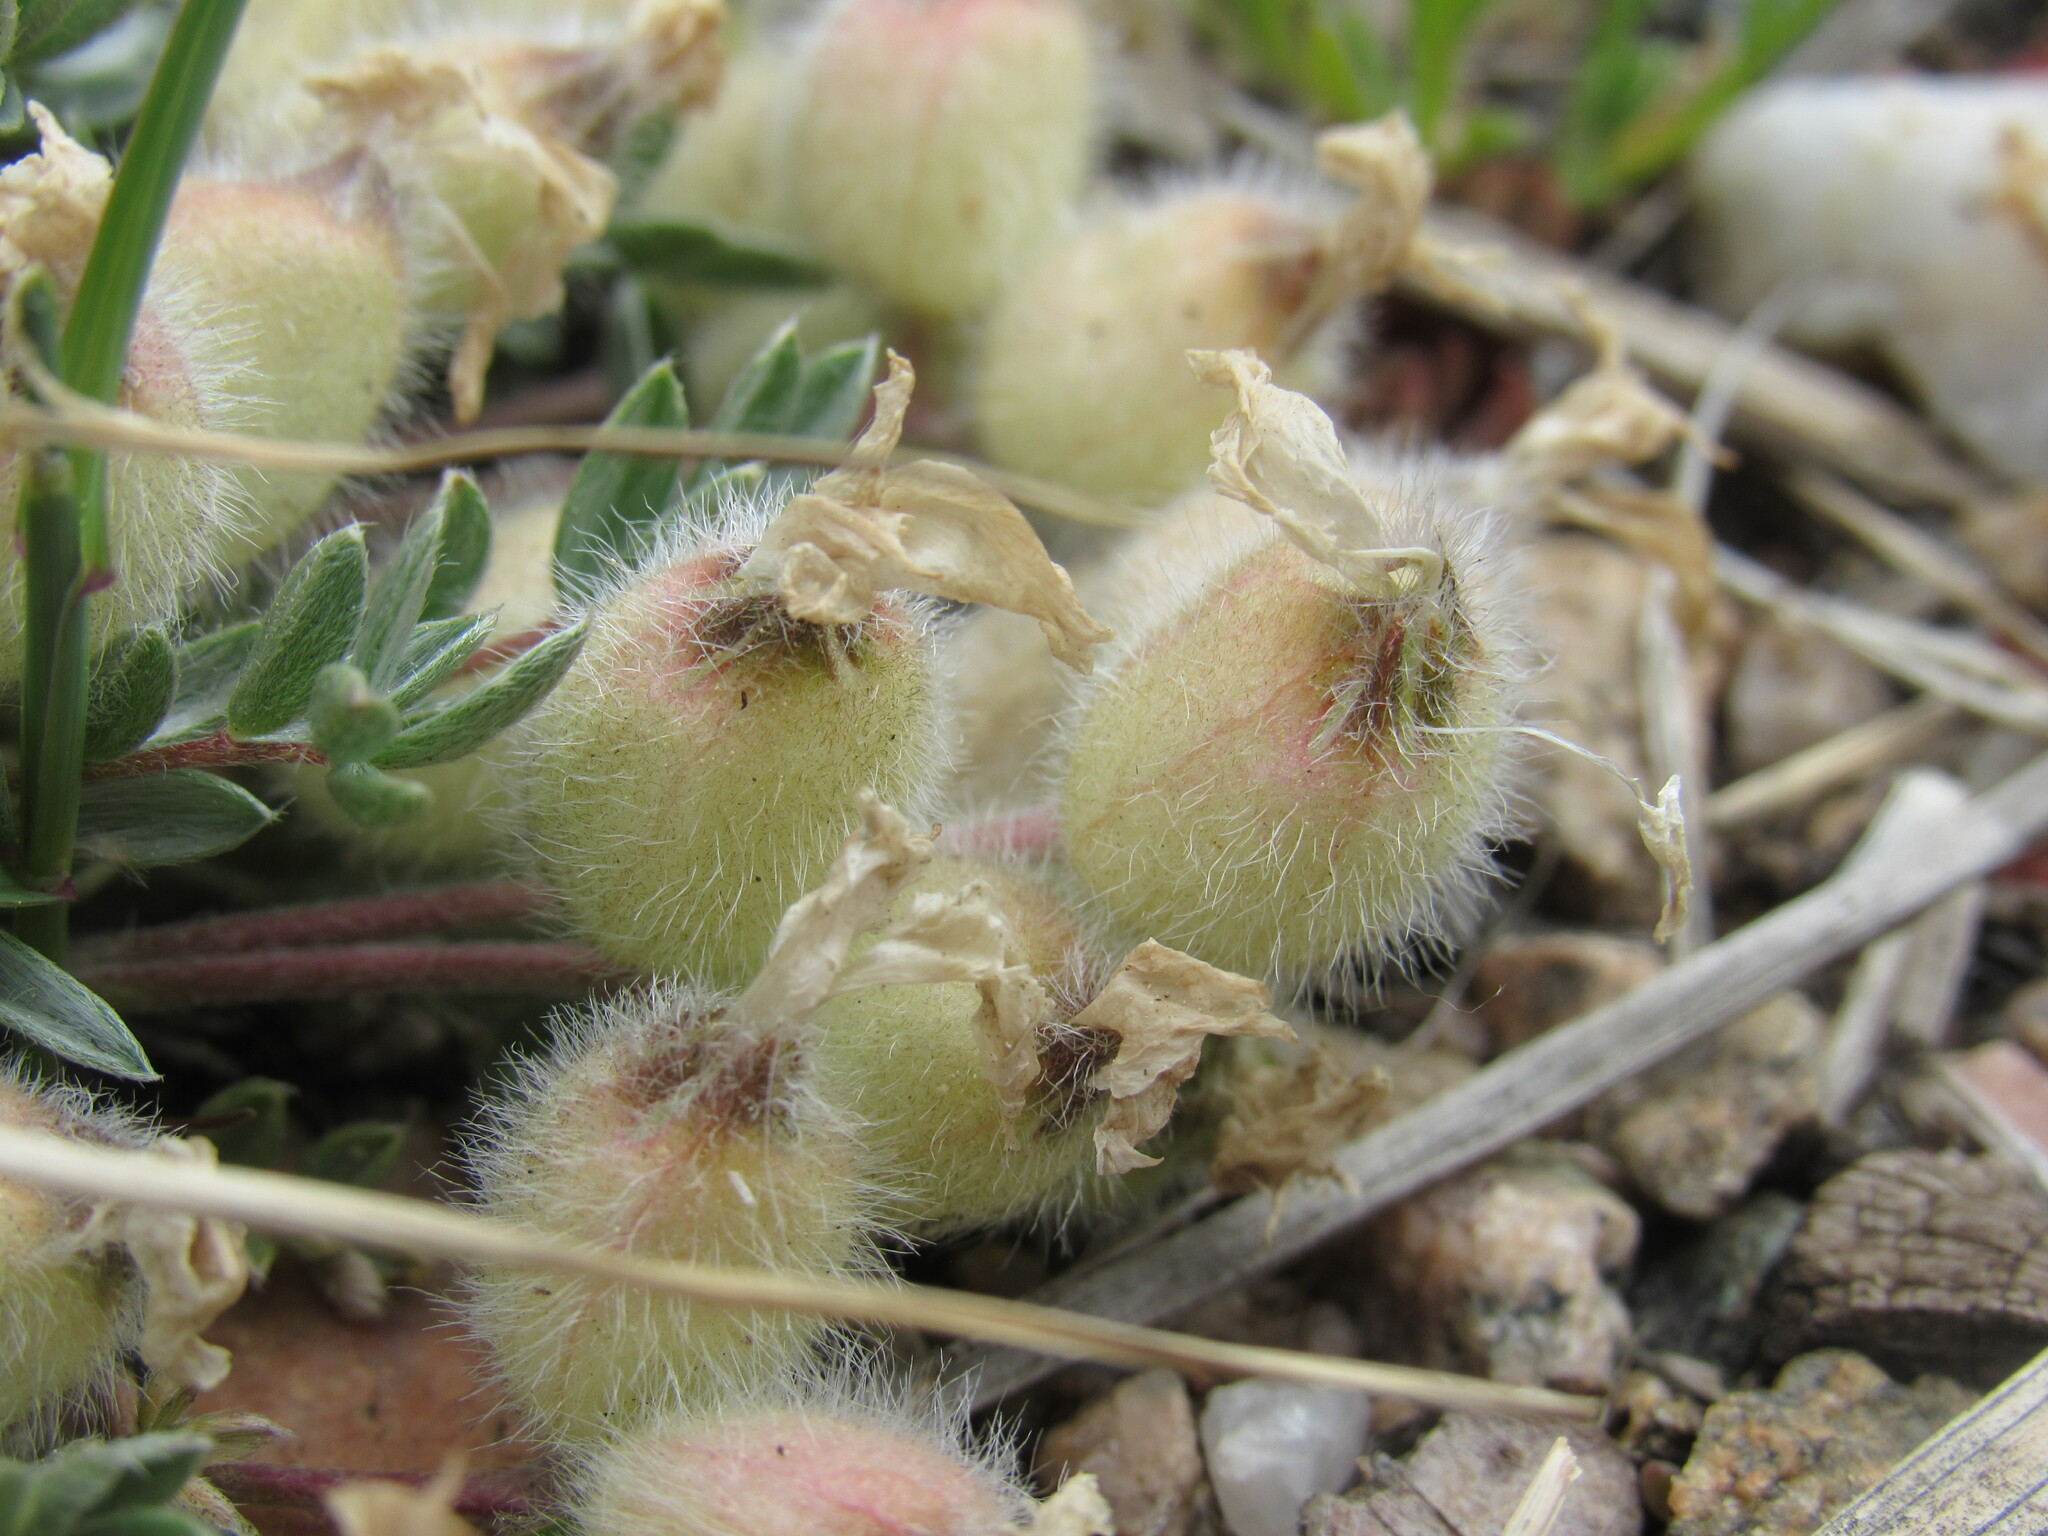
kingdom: Plantae
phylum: Tracheophyta
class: Magnoliopsida
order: Fabales
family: Fabaceae
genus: Oxytropis
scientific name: Oxytropis multiceps
